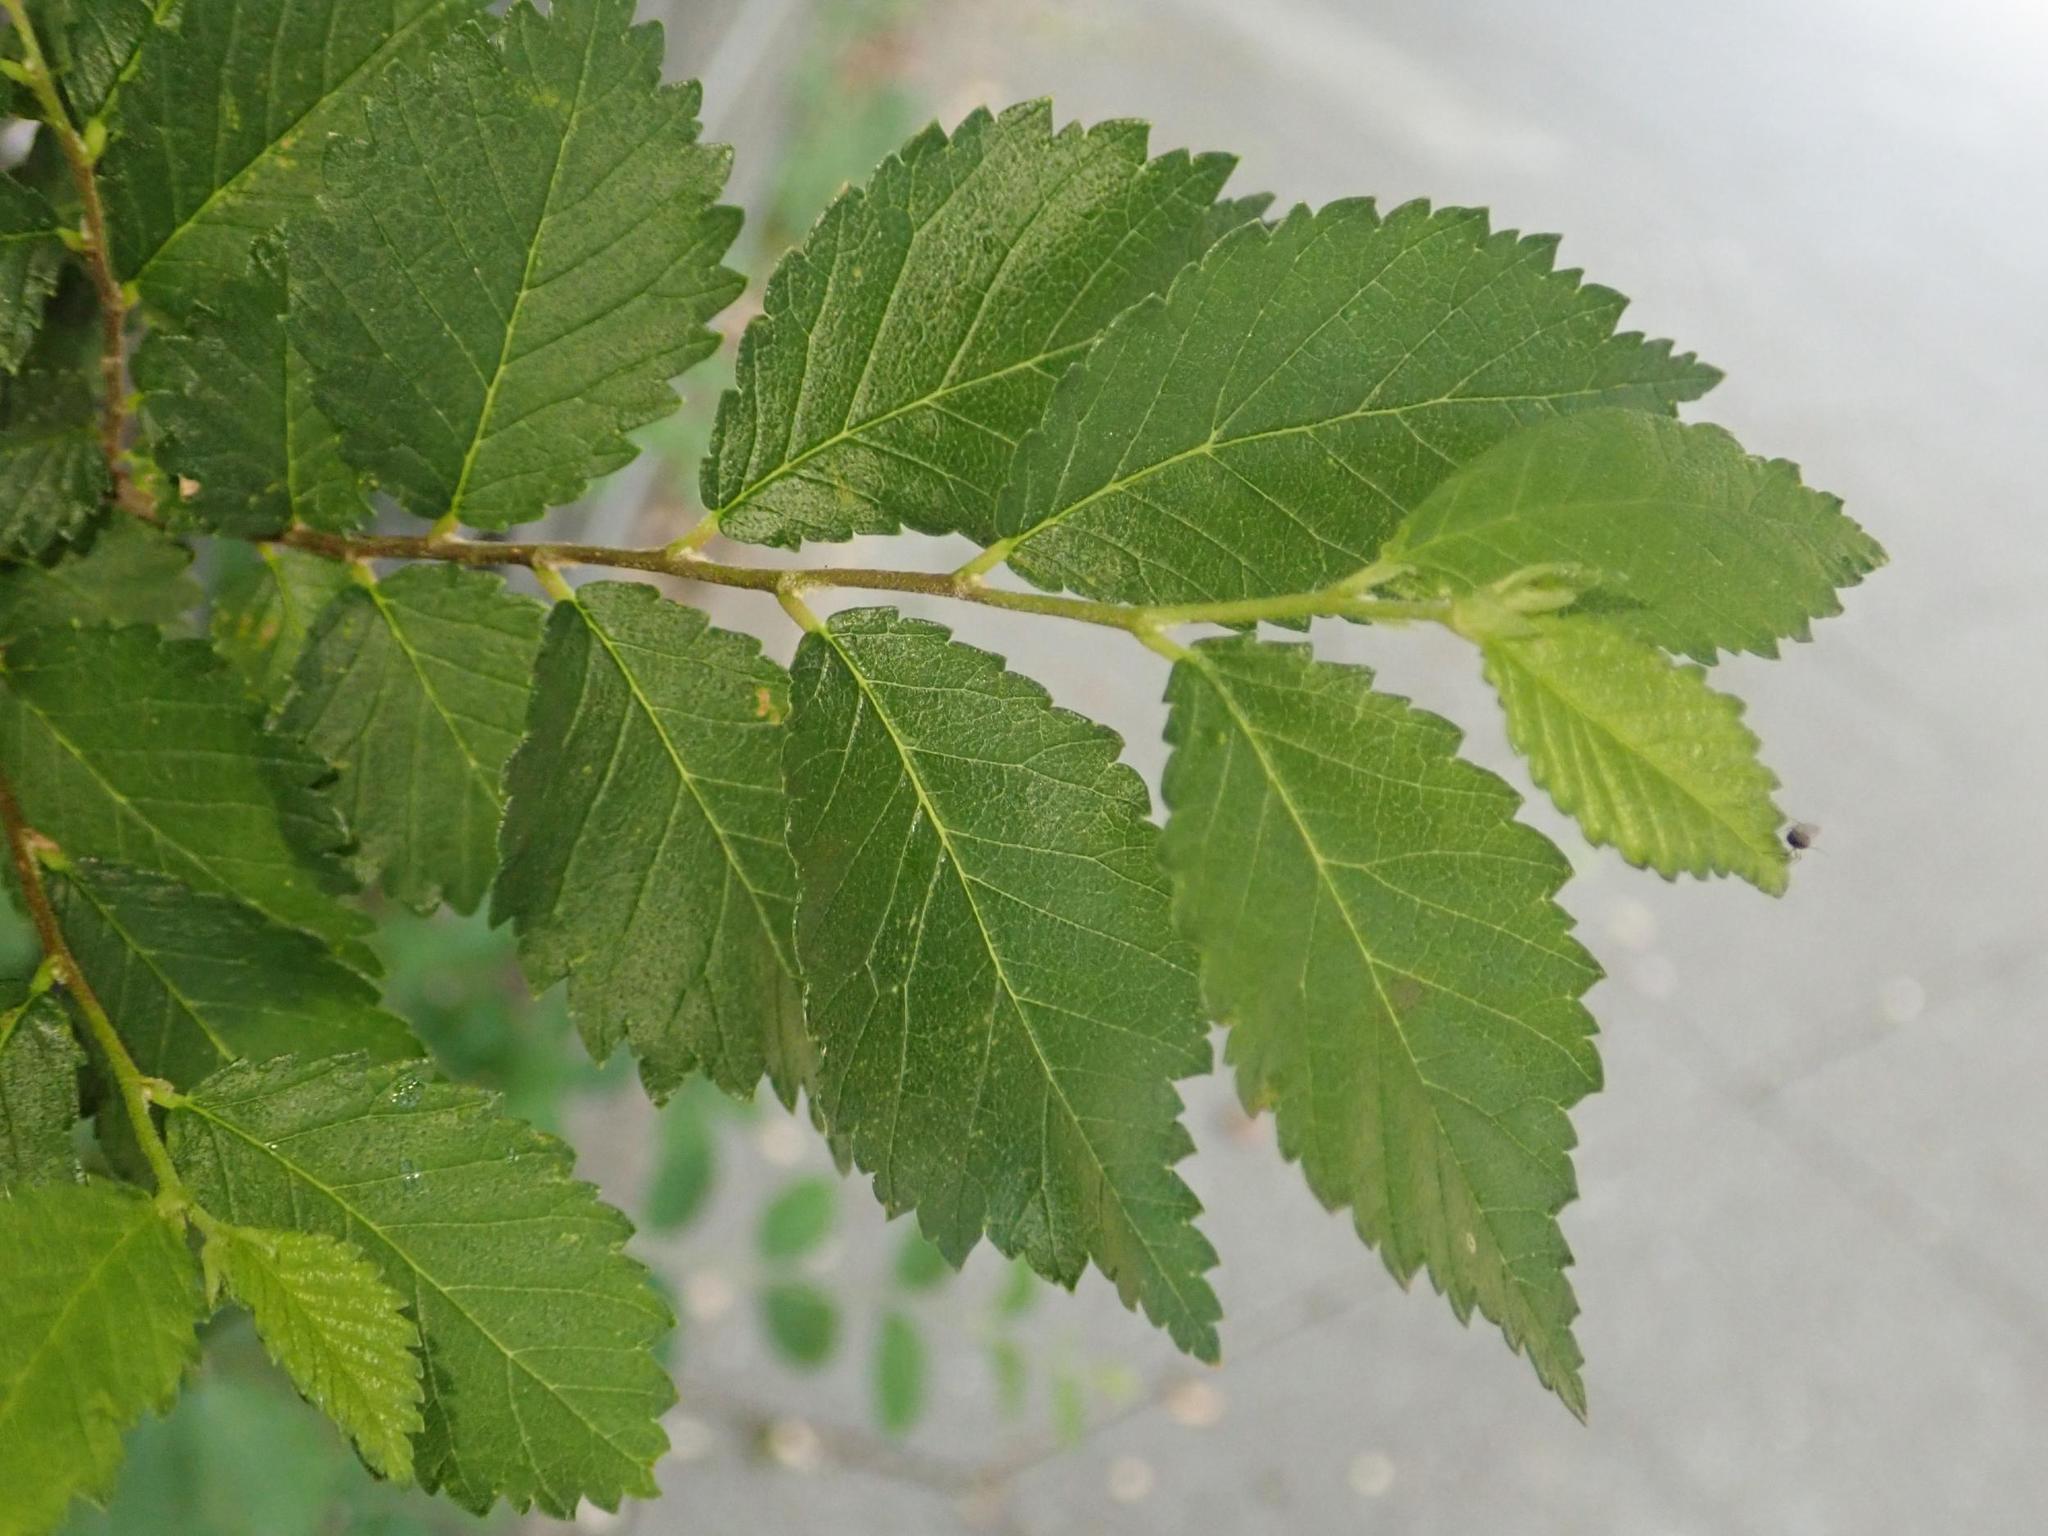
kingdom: Plantae
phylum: Tracheophyta
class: Magnoliopsida
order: Rosales
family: Ulmaceae
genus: Ulmus
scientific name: Ulmus minor
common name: Small-leaved elm
